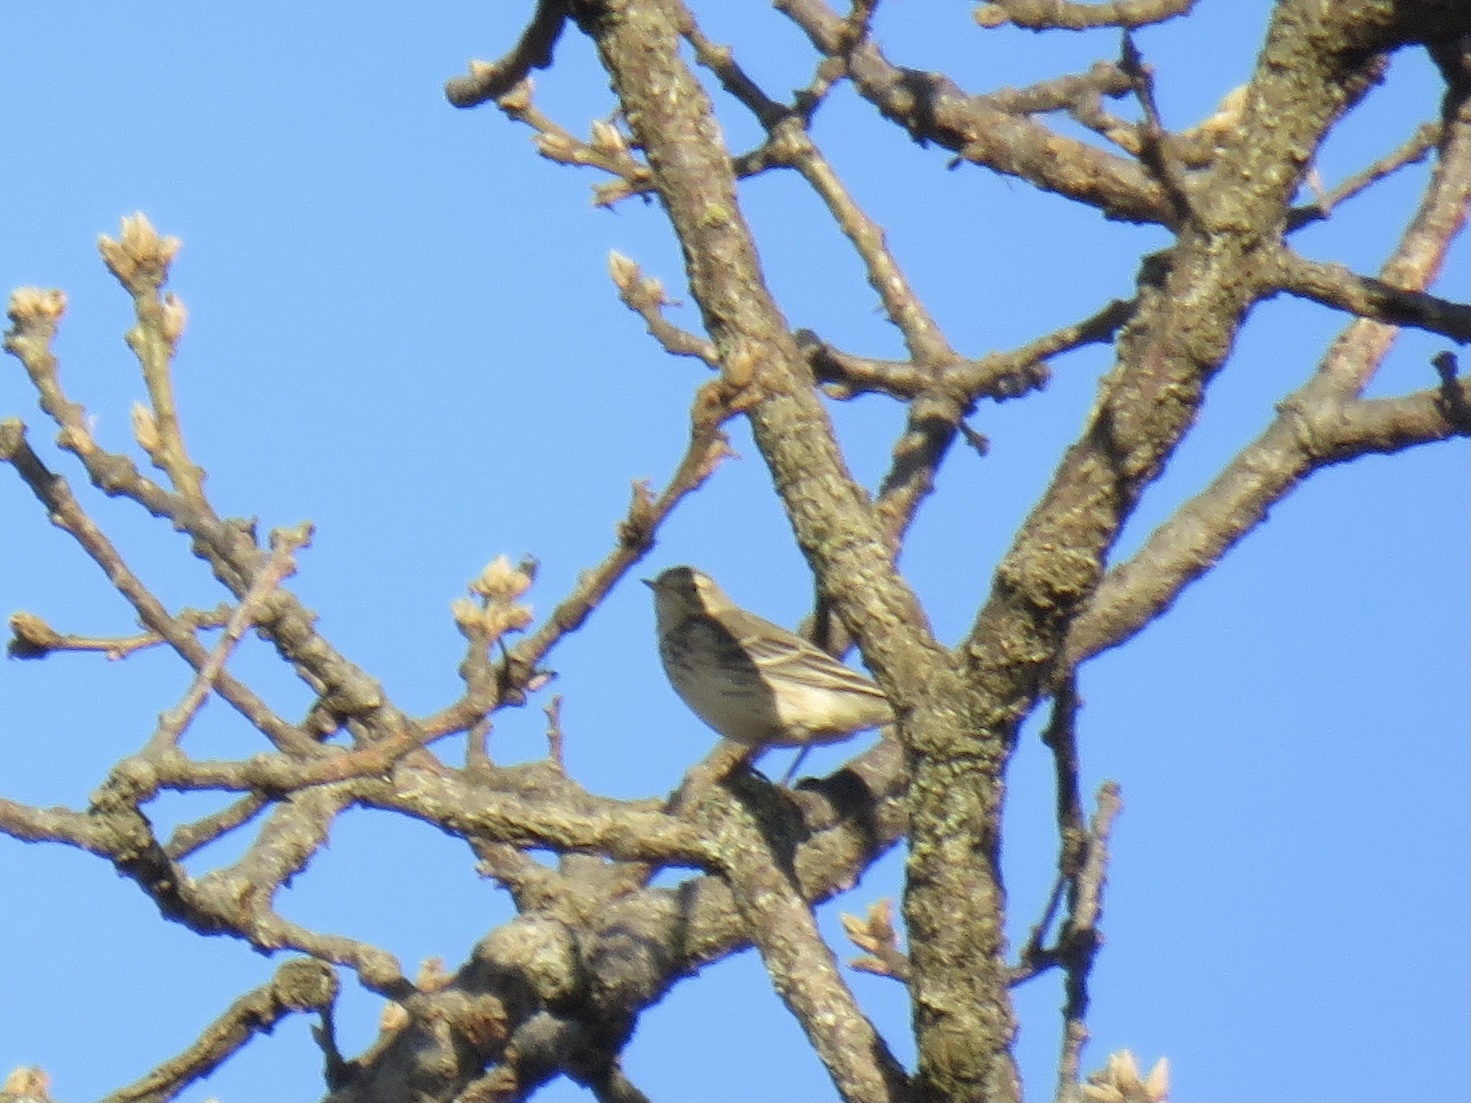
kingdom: Animalia
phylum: Chordata
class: Aves
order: Passeriformes
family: Motacillidae
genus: Anthus
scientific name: Anthus rubescens
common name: Buff-bellied pipit
